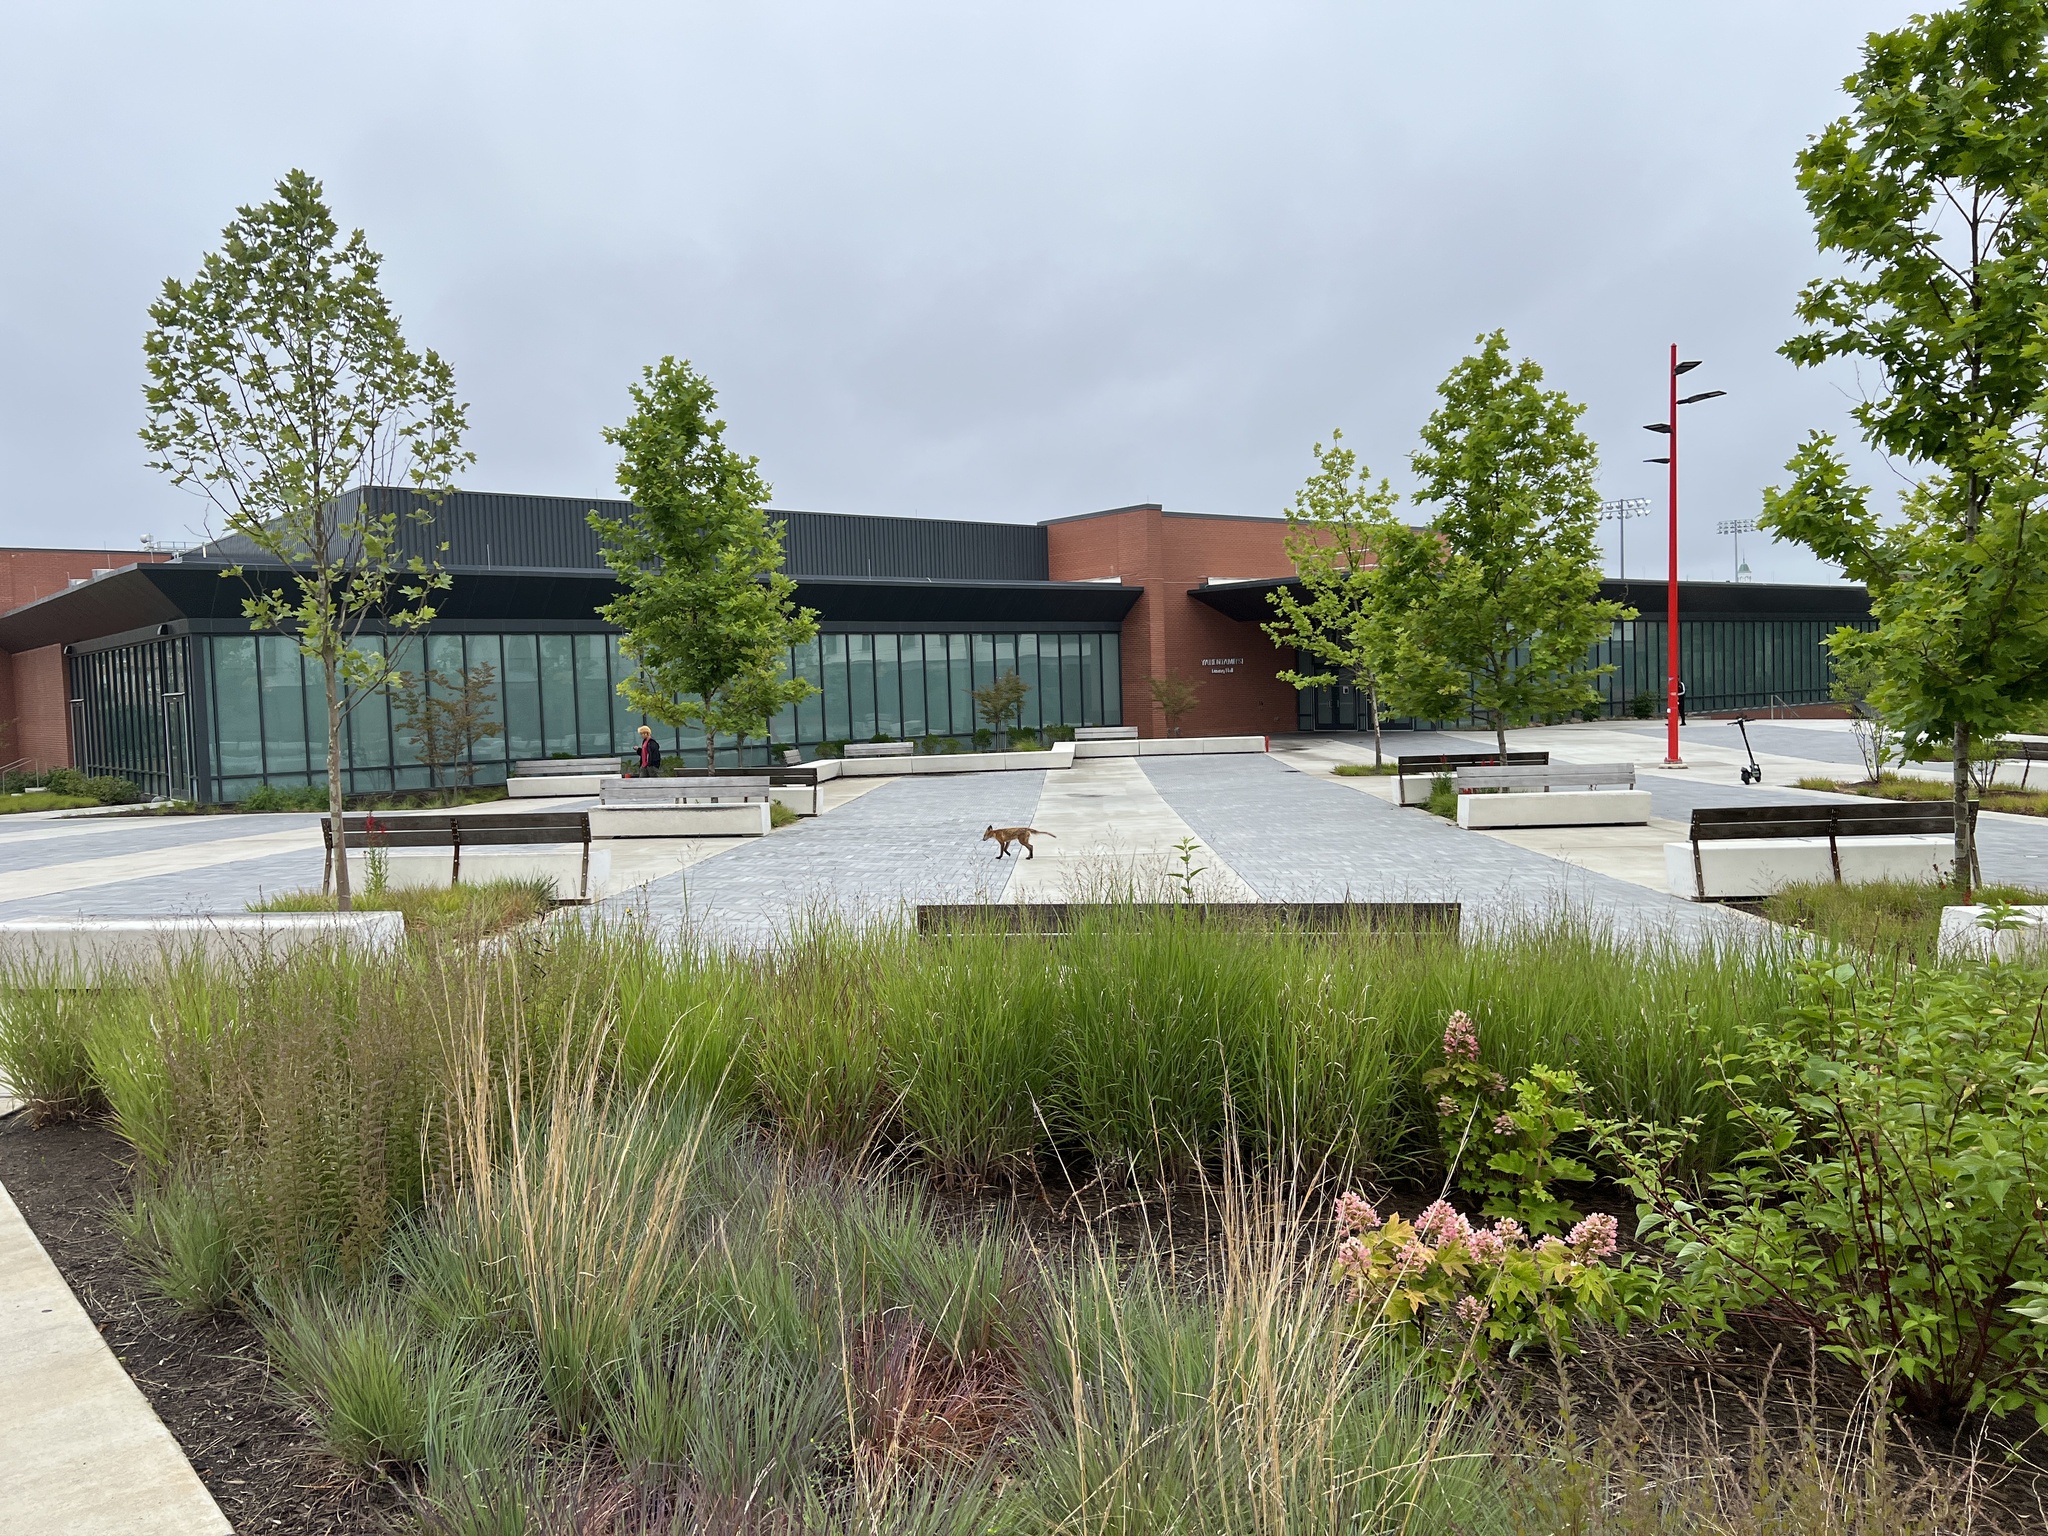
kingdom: Animalia
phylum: Chordata
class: Mammalia
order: Carnivora
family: Canidae
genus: Vulpes
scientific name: Vulpes vulpes
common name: Red fox
